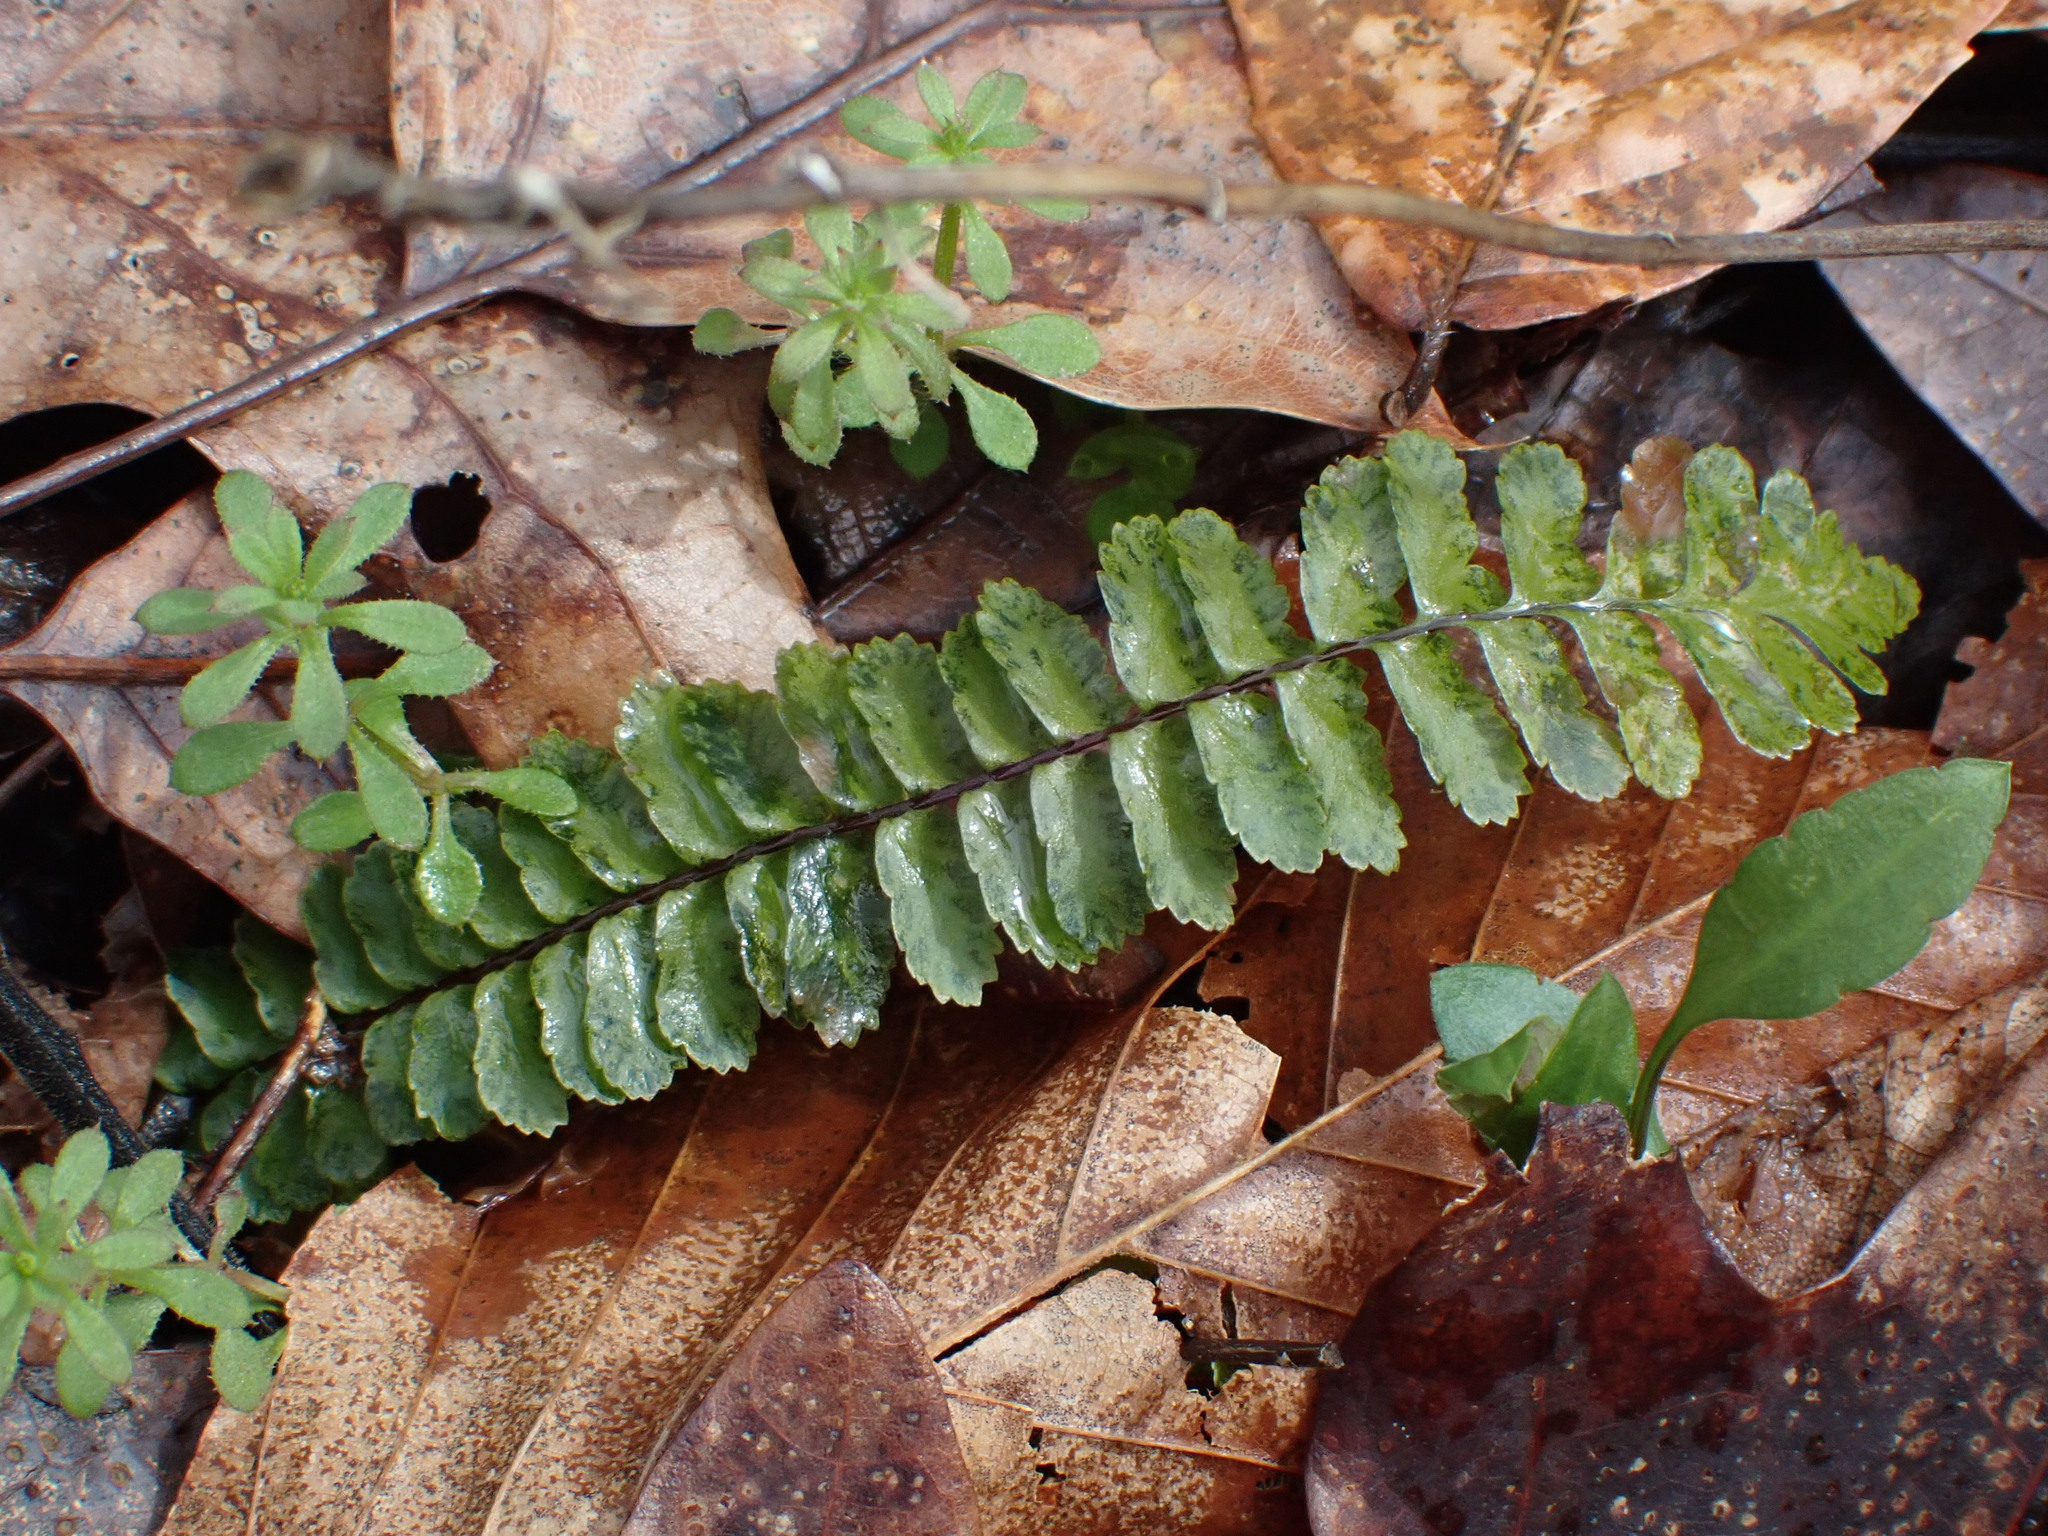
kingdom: Plantae
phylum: Tracheophyta
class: Polypodiopsida
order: Polypodiales
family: Aspleniaceae
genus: Asplenium
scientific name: Asplenium platyneuron
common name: Ebony spleenwort
